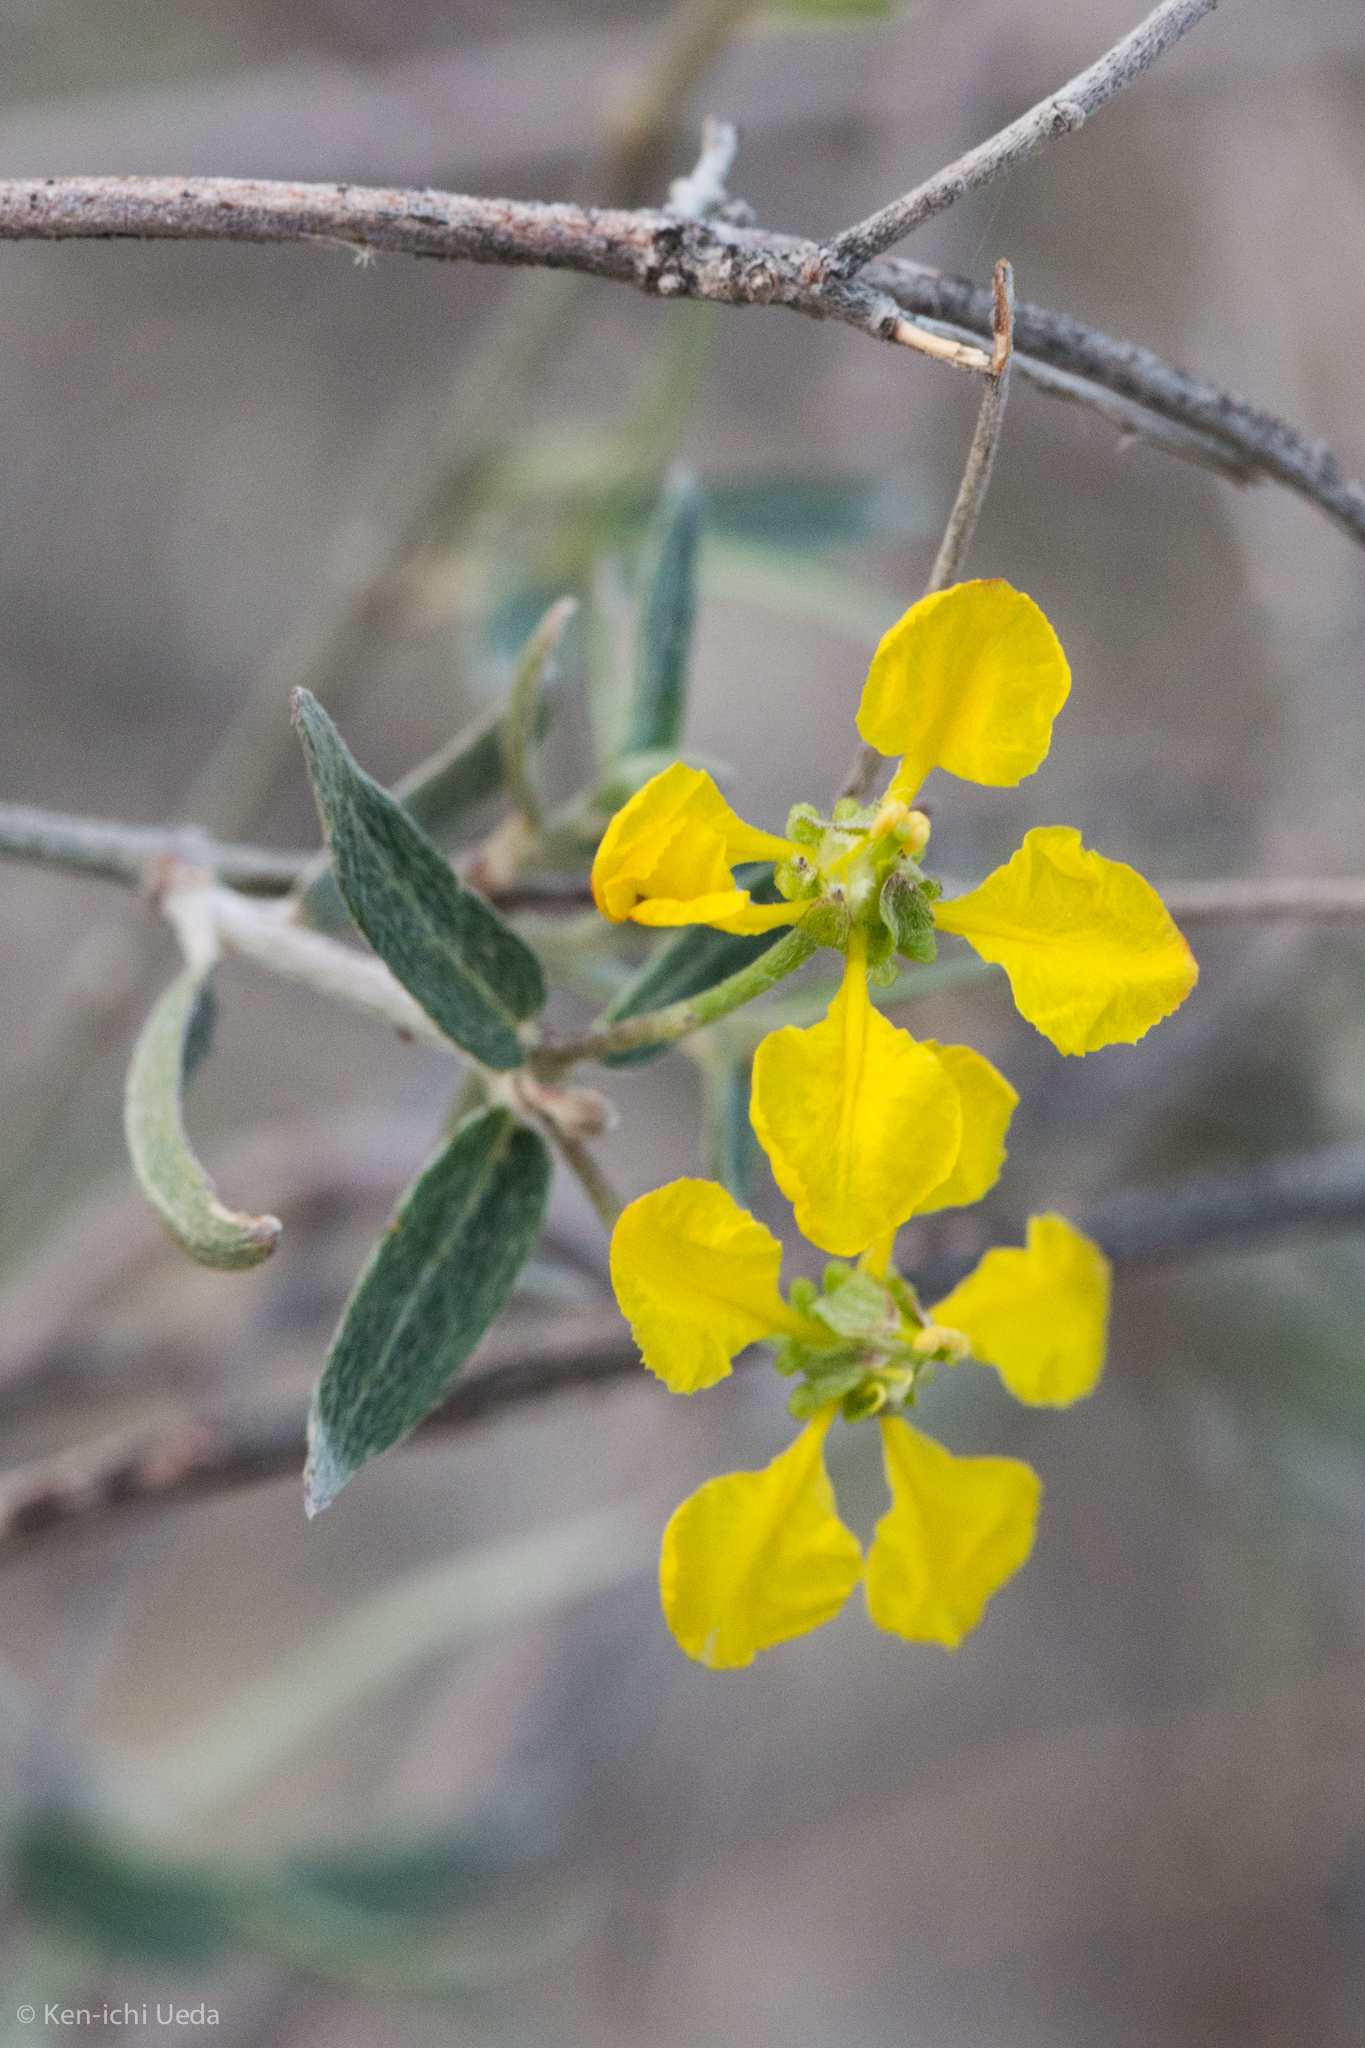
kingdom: Plantae
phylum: Tracheophyta
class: Magnoliopsida
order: Malpighiales
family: Malpighiaceae
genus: Cottsia
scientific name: Cottsia gracilis
